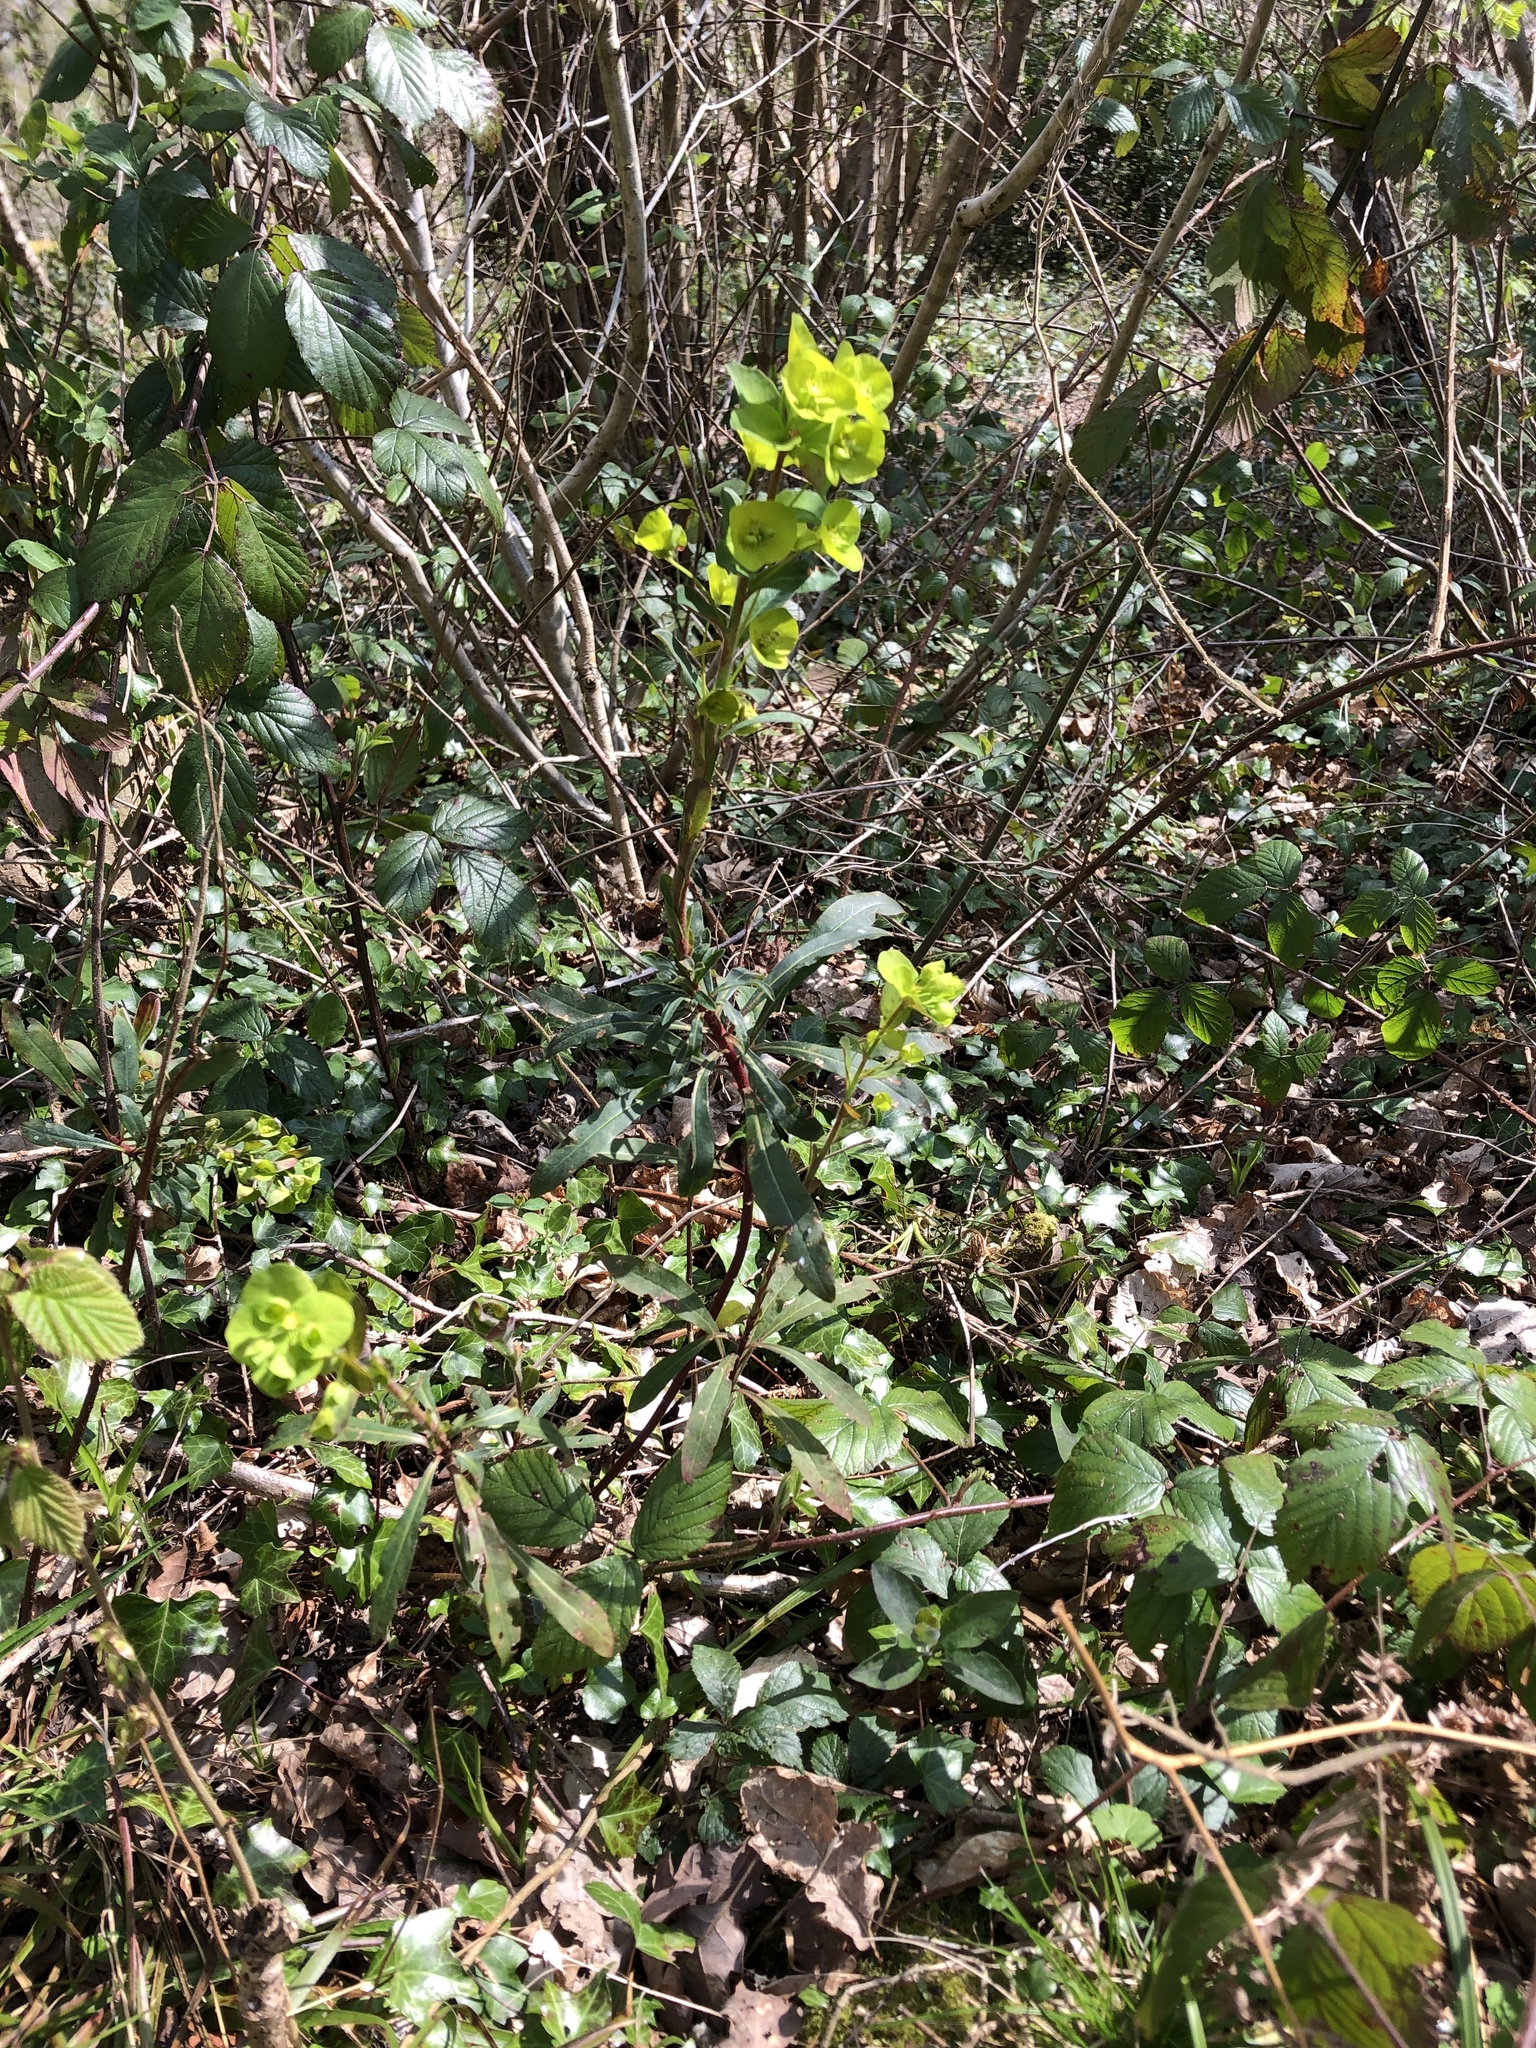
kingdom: Plantae
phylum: Tracheophyta
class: Magnoliopsida
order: Malpighiales
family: Euphorbiaceae
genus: Euphorbia
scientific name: Euphorbia amygdaloides
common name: Wood spurge
